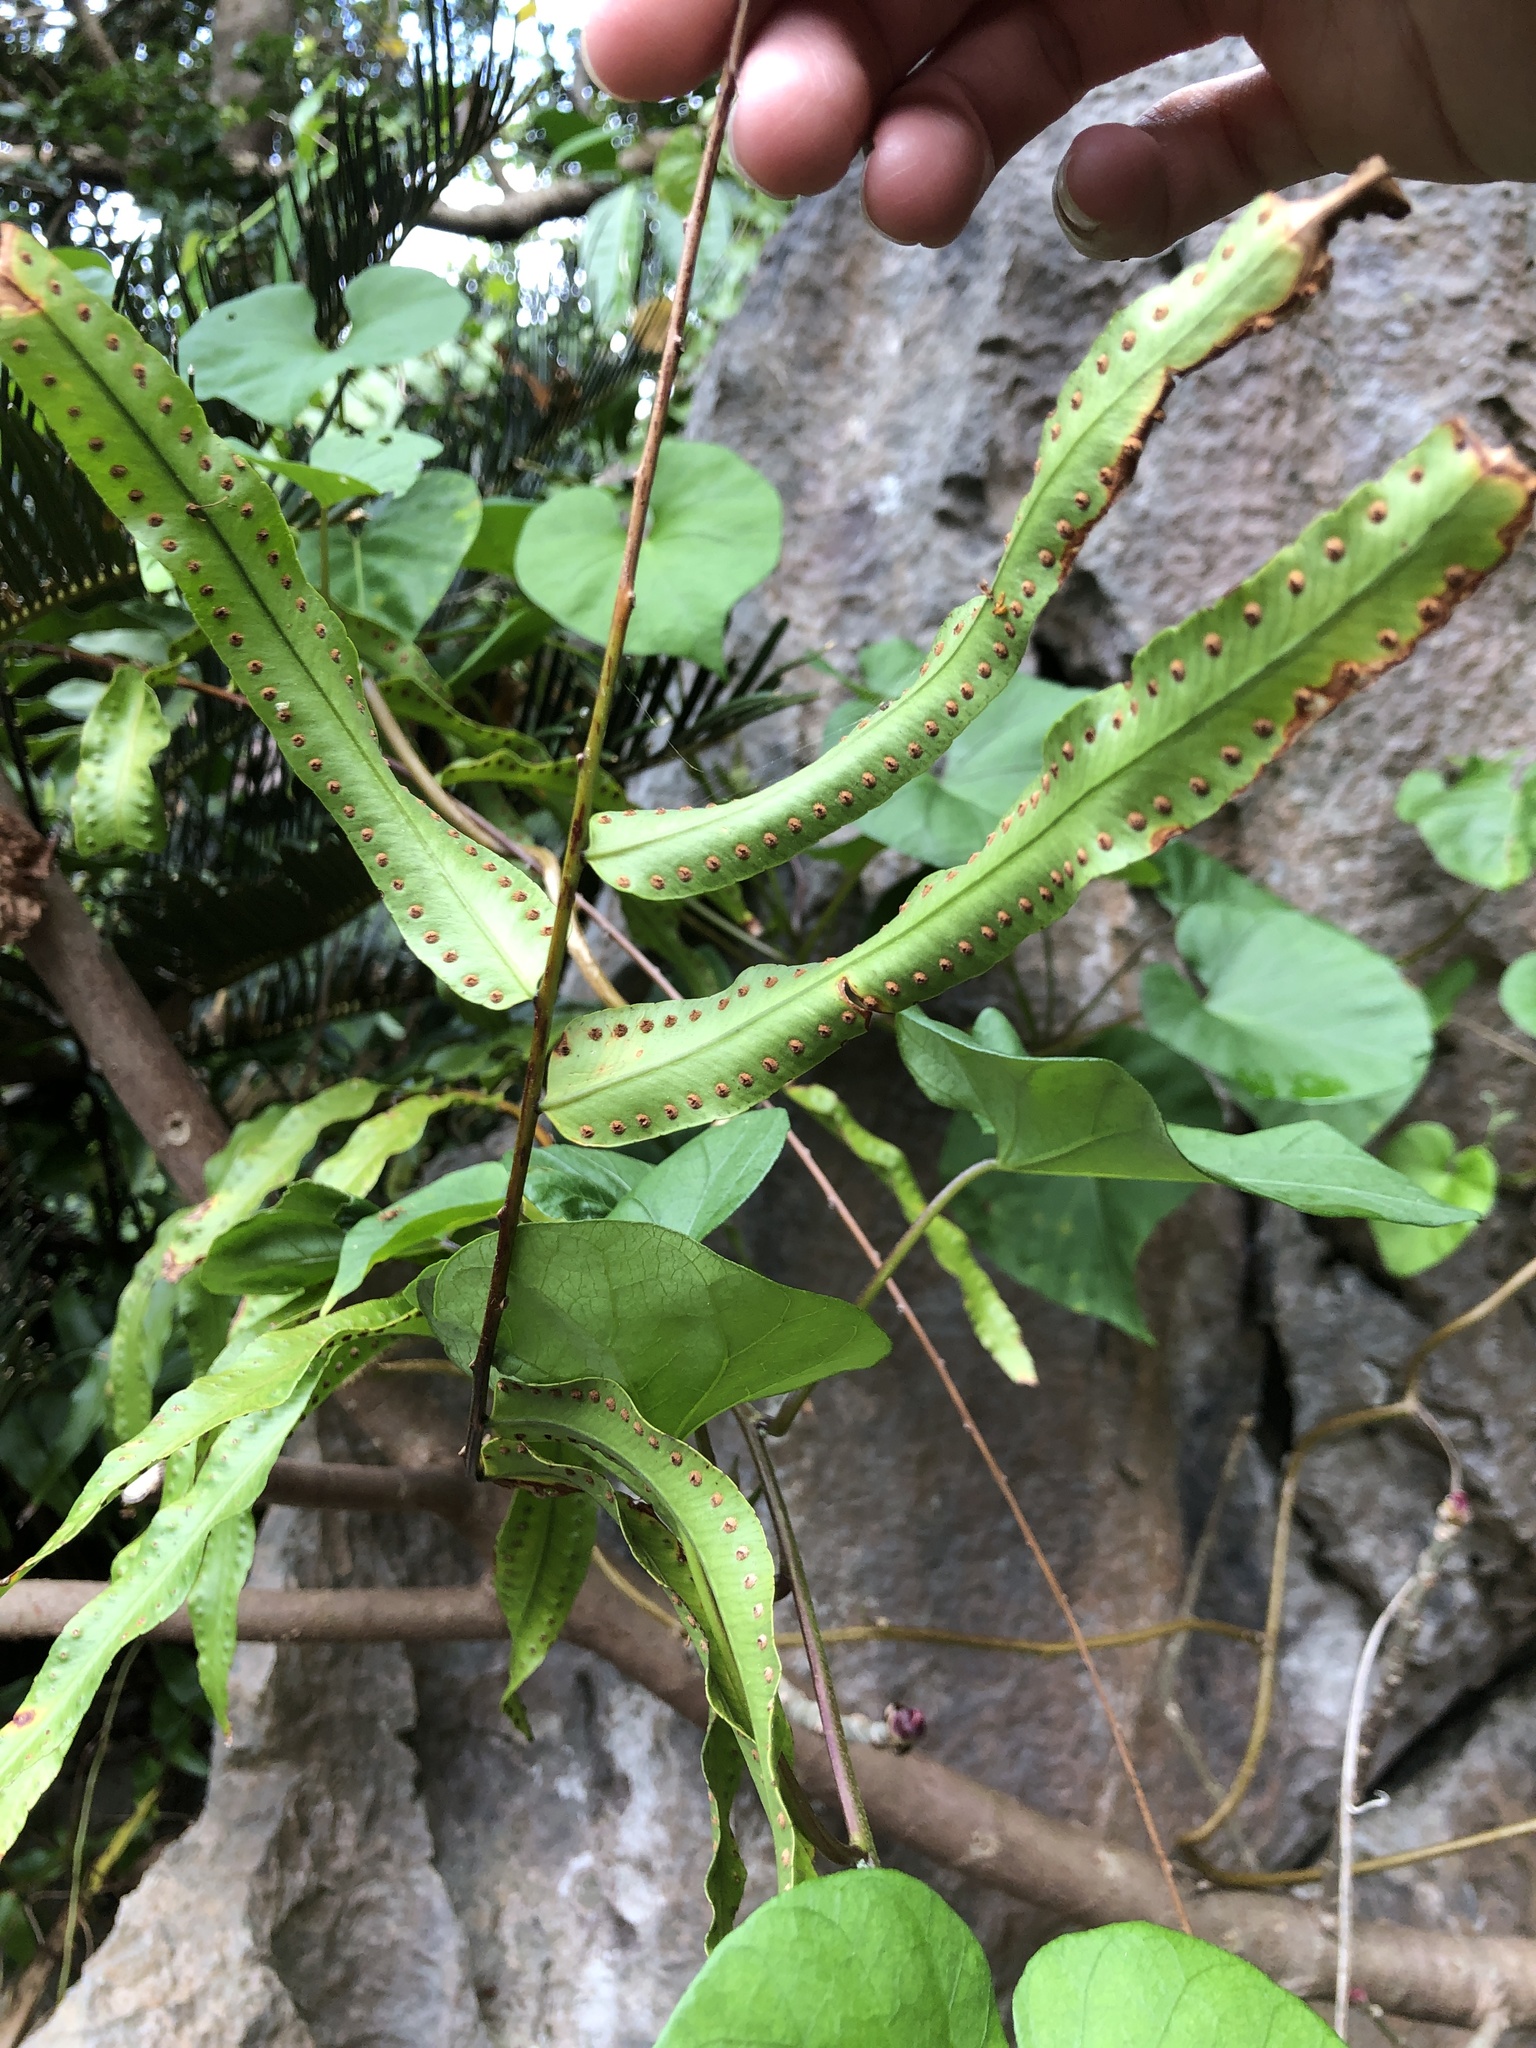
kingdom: Plantae
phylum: Tracheophyta
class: Polypodiopsida
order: Polypodiales
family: Nephrolepidaceae
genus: Nephrolepis
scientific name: Nephrolepis biserrata
